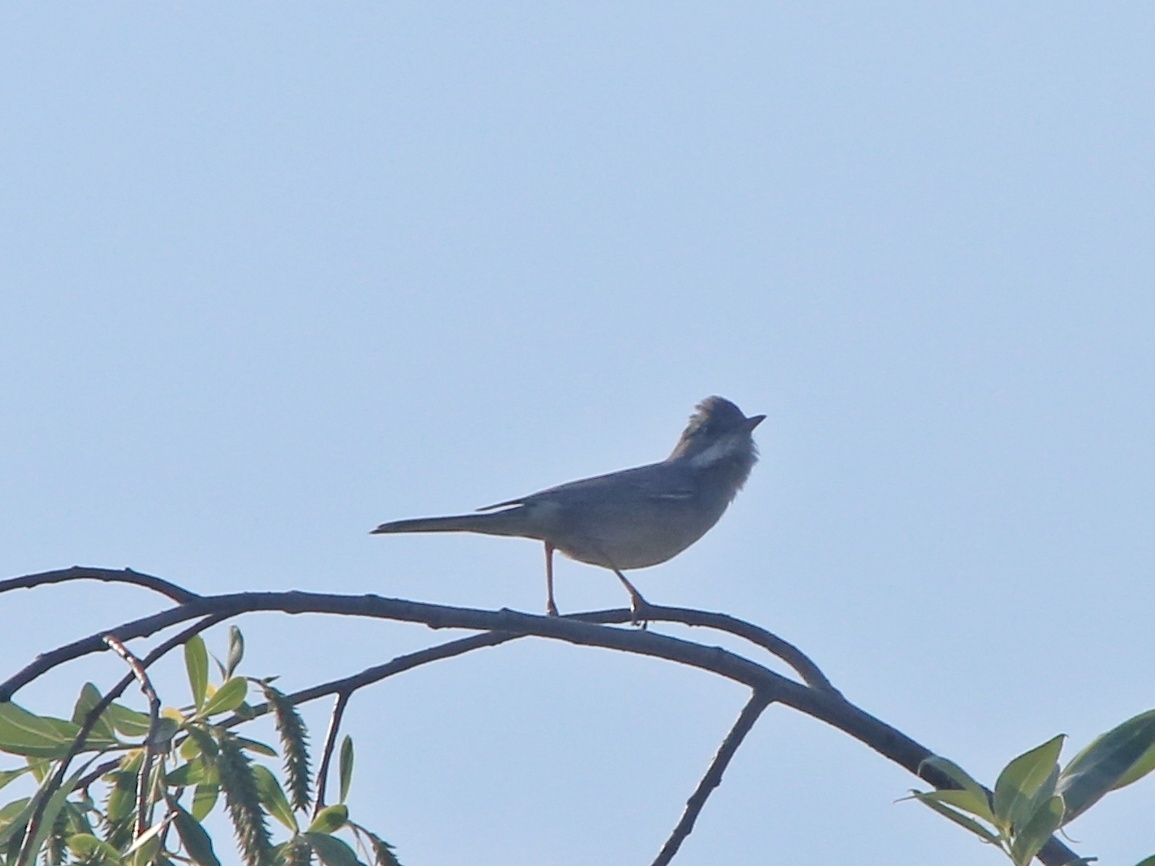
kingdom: Animalia
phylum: Chordata
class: Aves
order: Passeriformes
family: Sylviidae
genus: Sylvia
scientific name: Sylvia communis
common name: Common whitethroat
